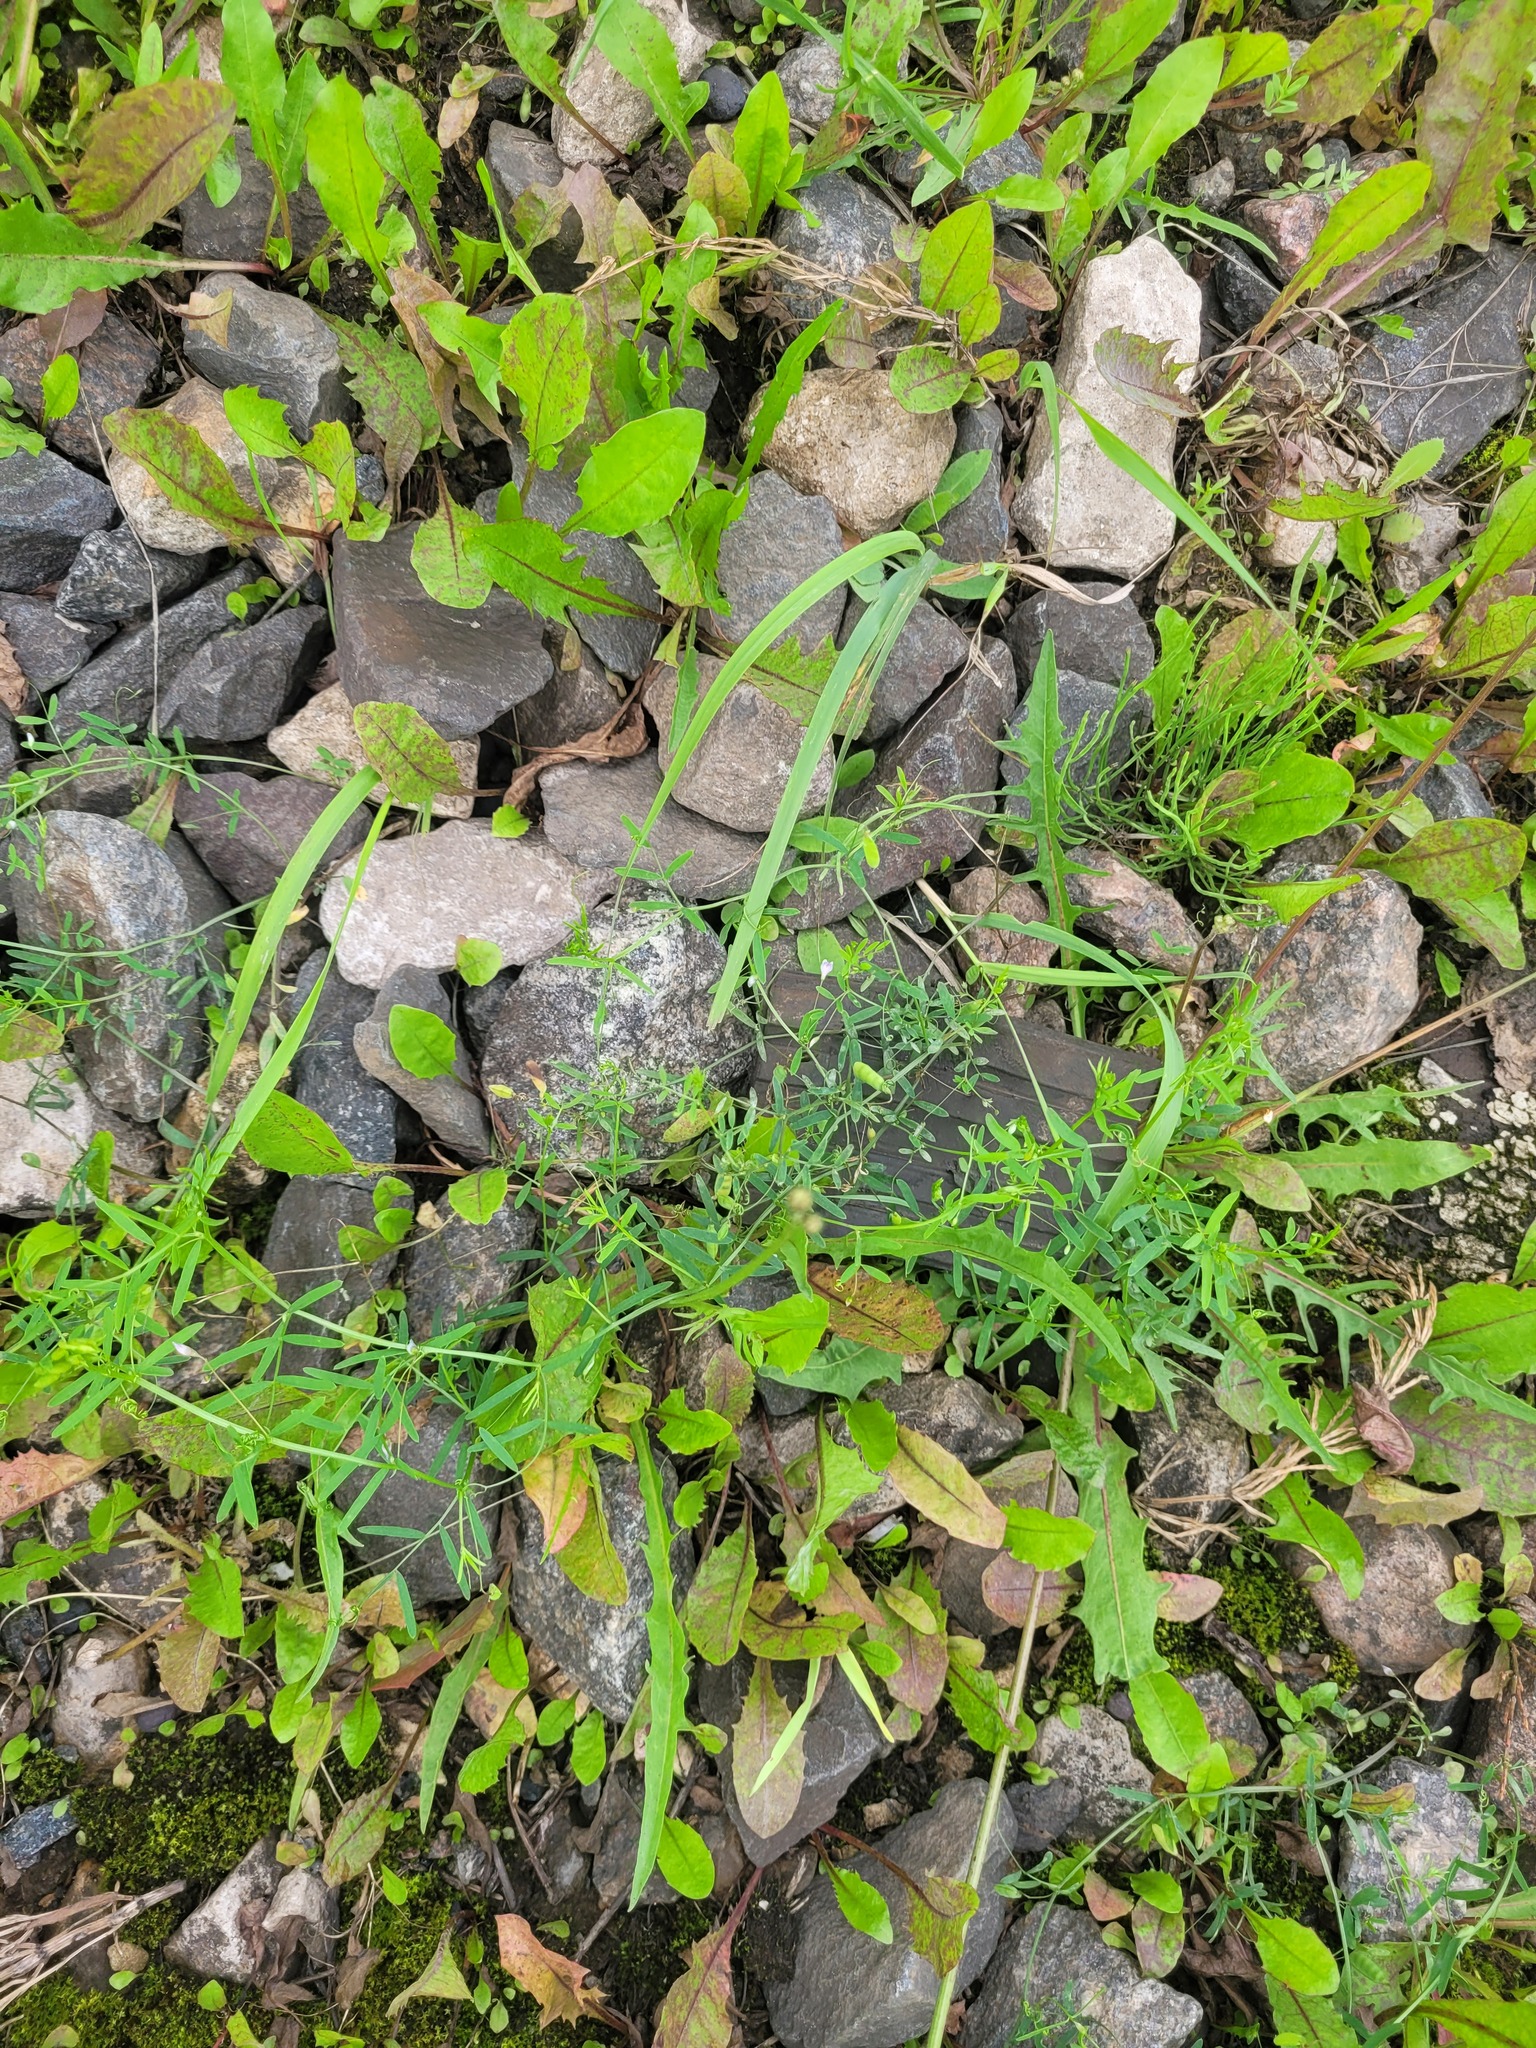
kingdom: Plantae
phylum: Tracheophyta
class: Magnoliopsida
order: Fabales
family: Fabaceae
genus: Vicia
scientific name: Vicia tetrasperma
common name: Smooth tare
